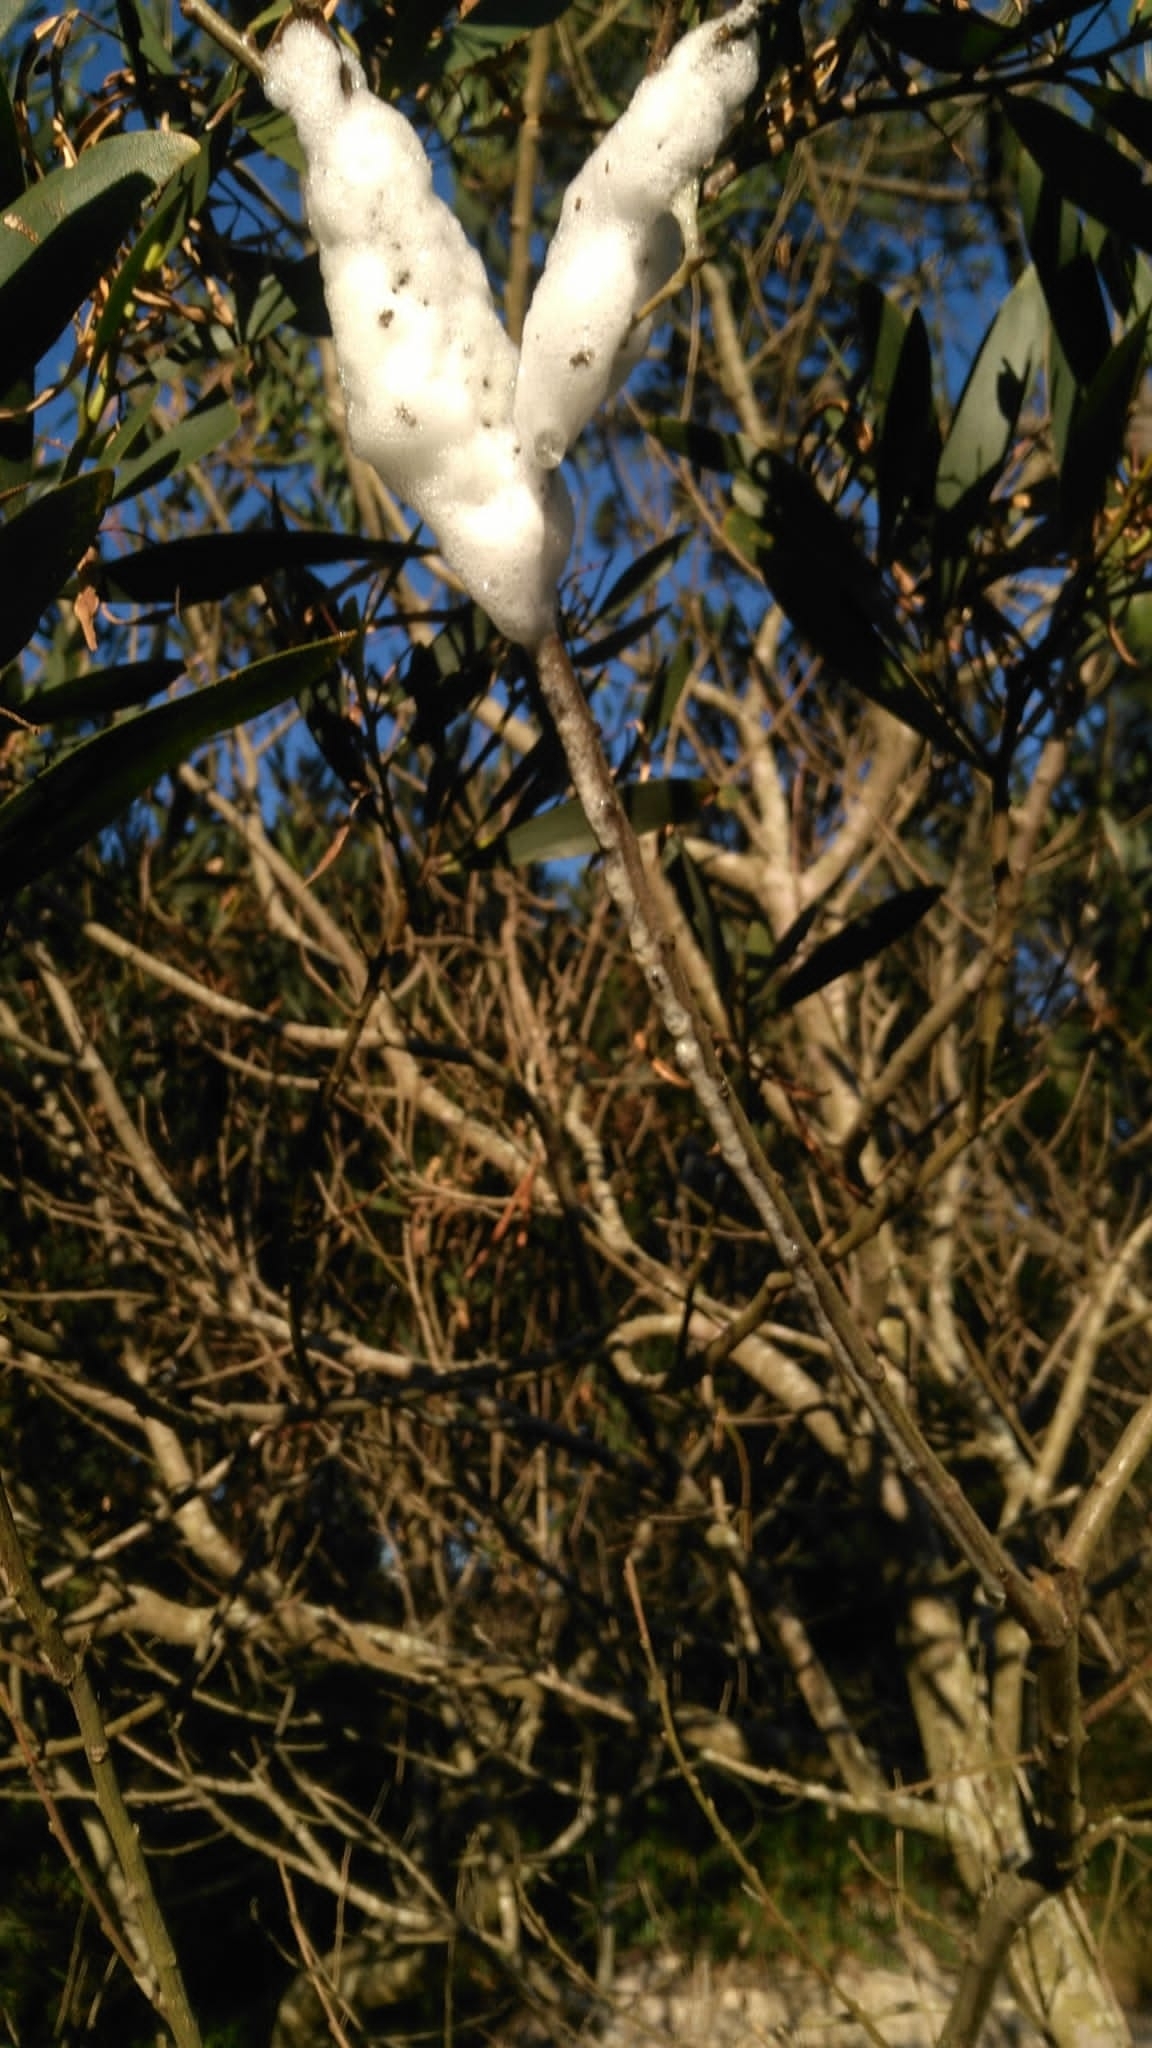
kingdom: Animalia
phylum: Arthropoda
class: Insecta
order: Hemiptera
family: Aphrophoridae
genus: Cephisus
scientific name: Cephisus siccifolius
